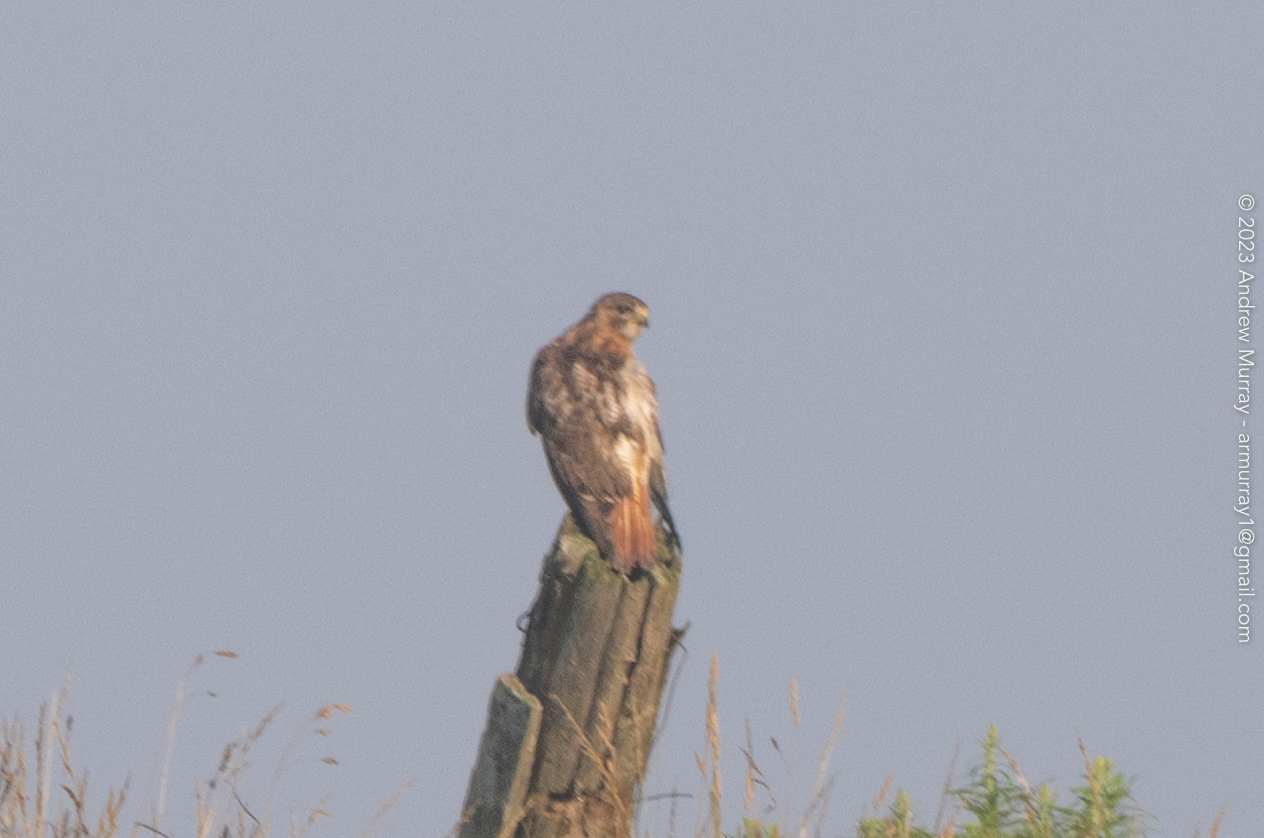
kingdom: Animalia
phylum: Chordata
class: Aves
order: Accipitriformes
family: Accipitridae
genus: Buteo
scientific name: Buteo jamaicensis
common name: Red-tailed hawk
